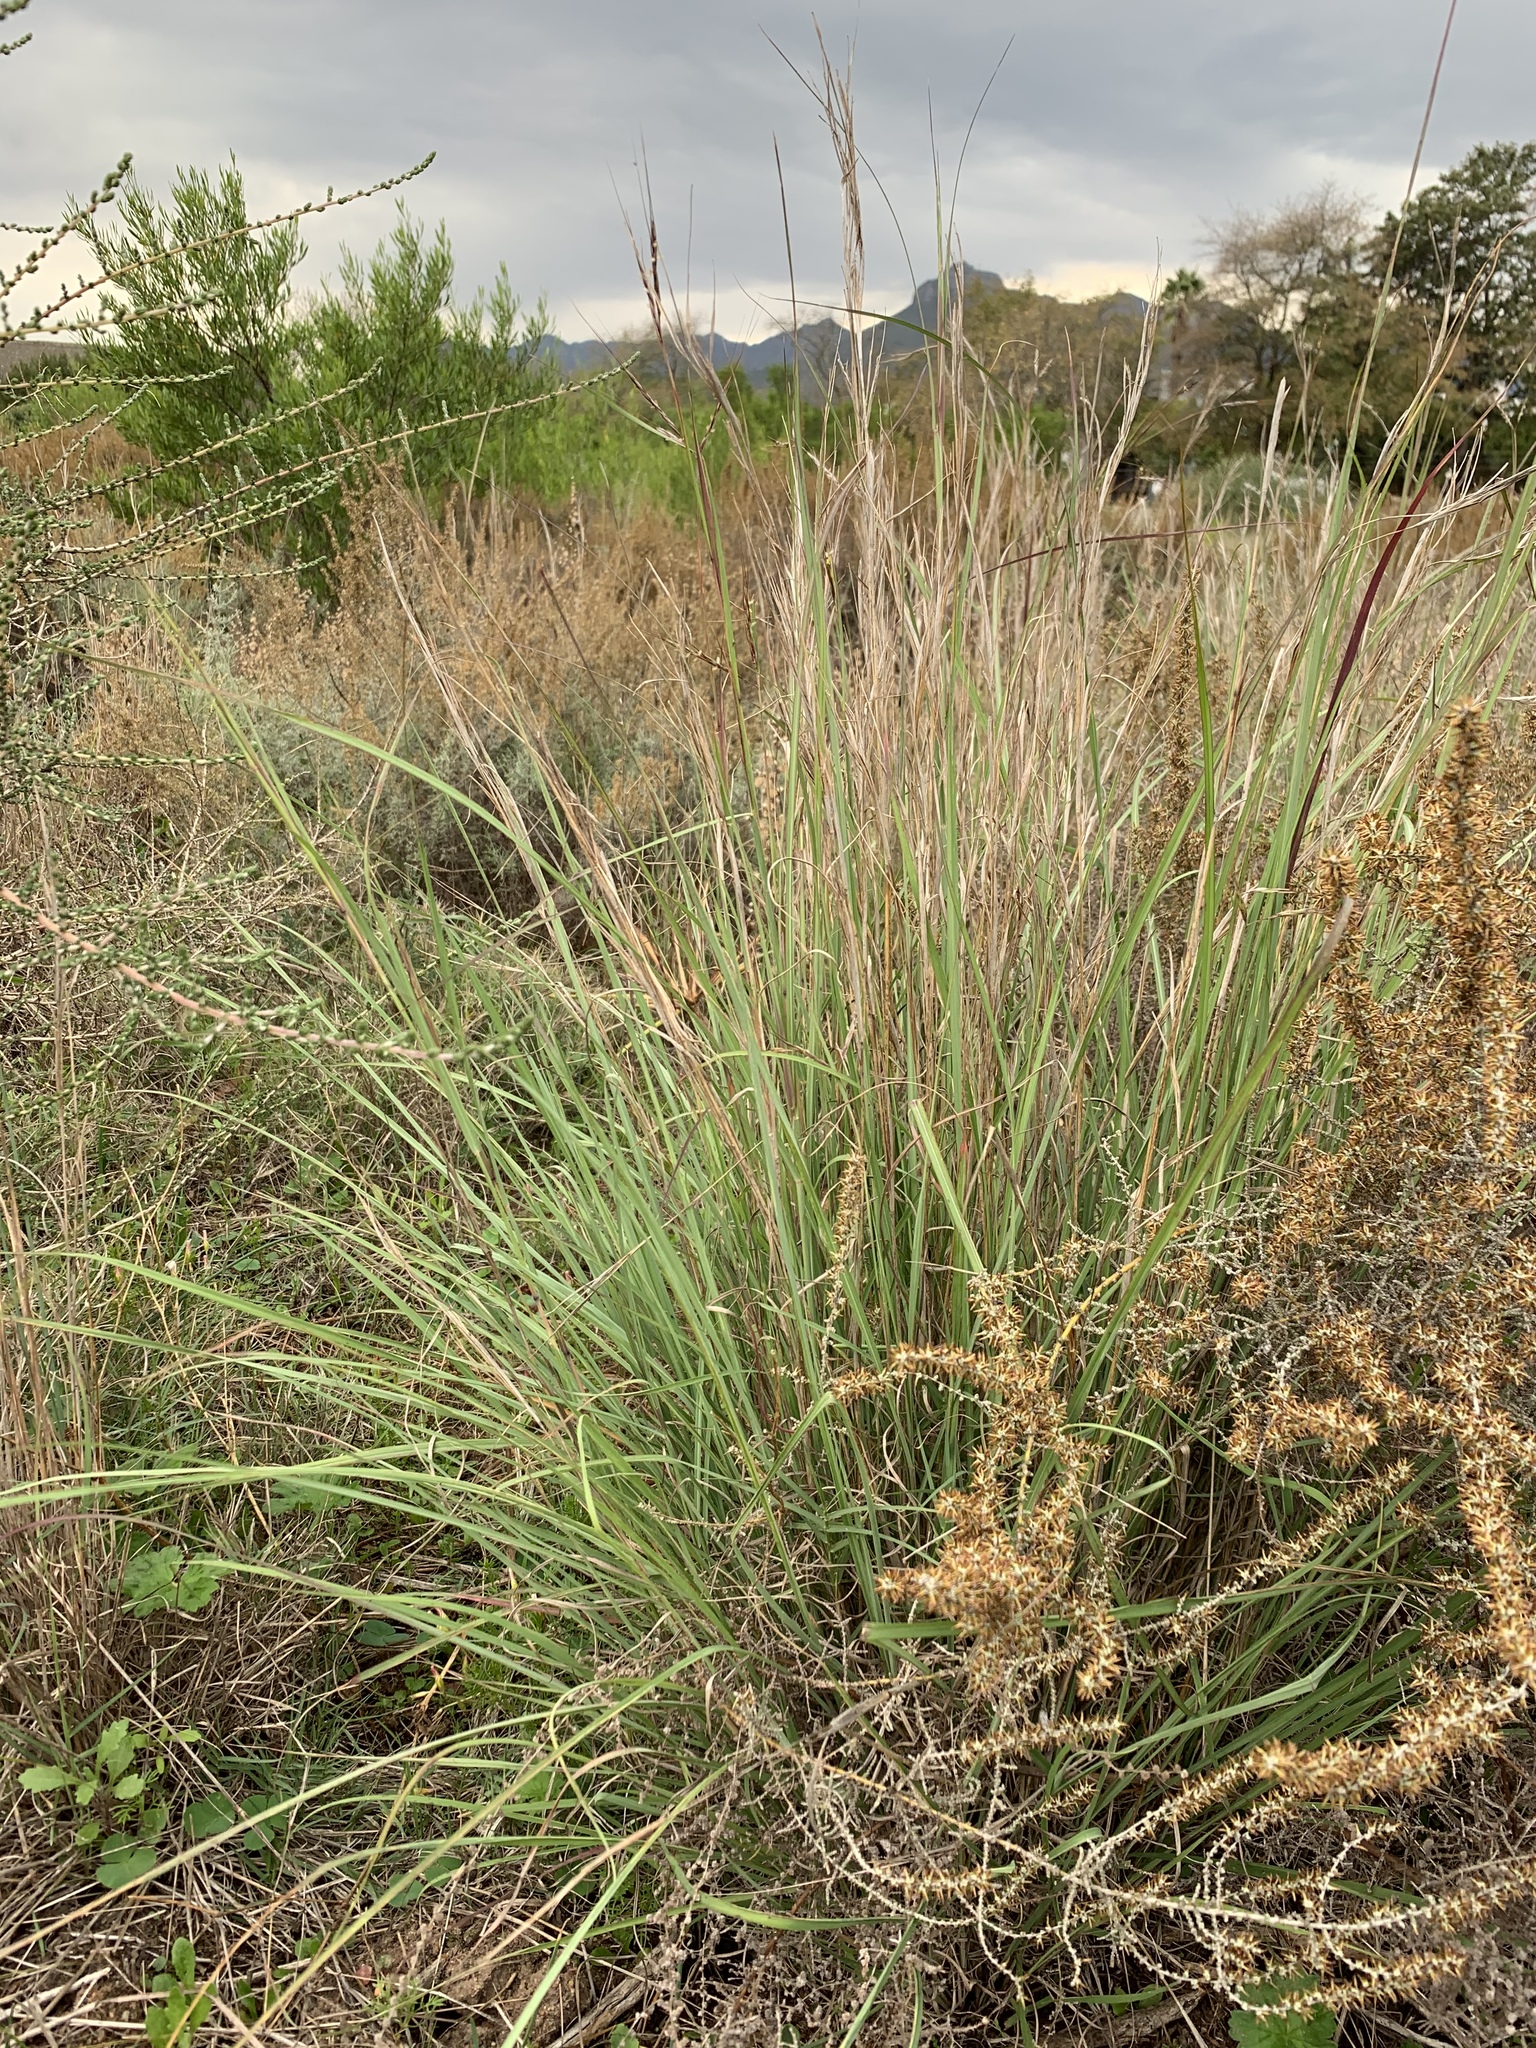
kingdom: Plantae
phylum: Tracheophyta
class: Liliopsida
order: Poales
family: Poaceae
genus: Hyparrhenia
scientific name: Hyparrhenia hirta
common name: Thatching grass
